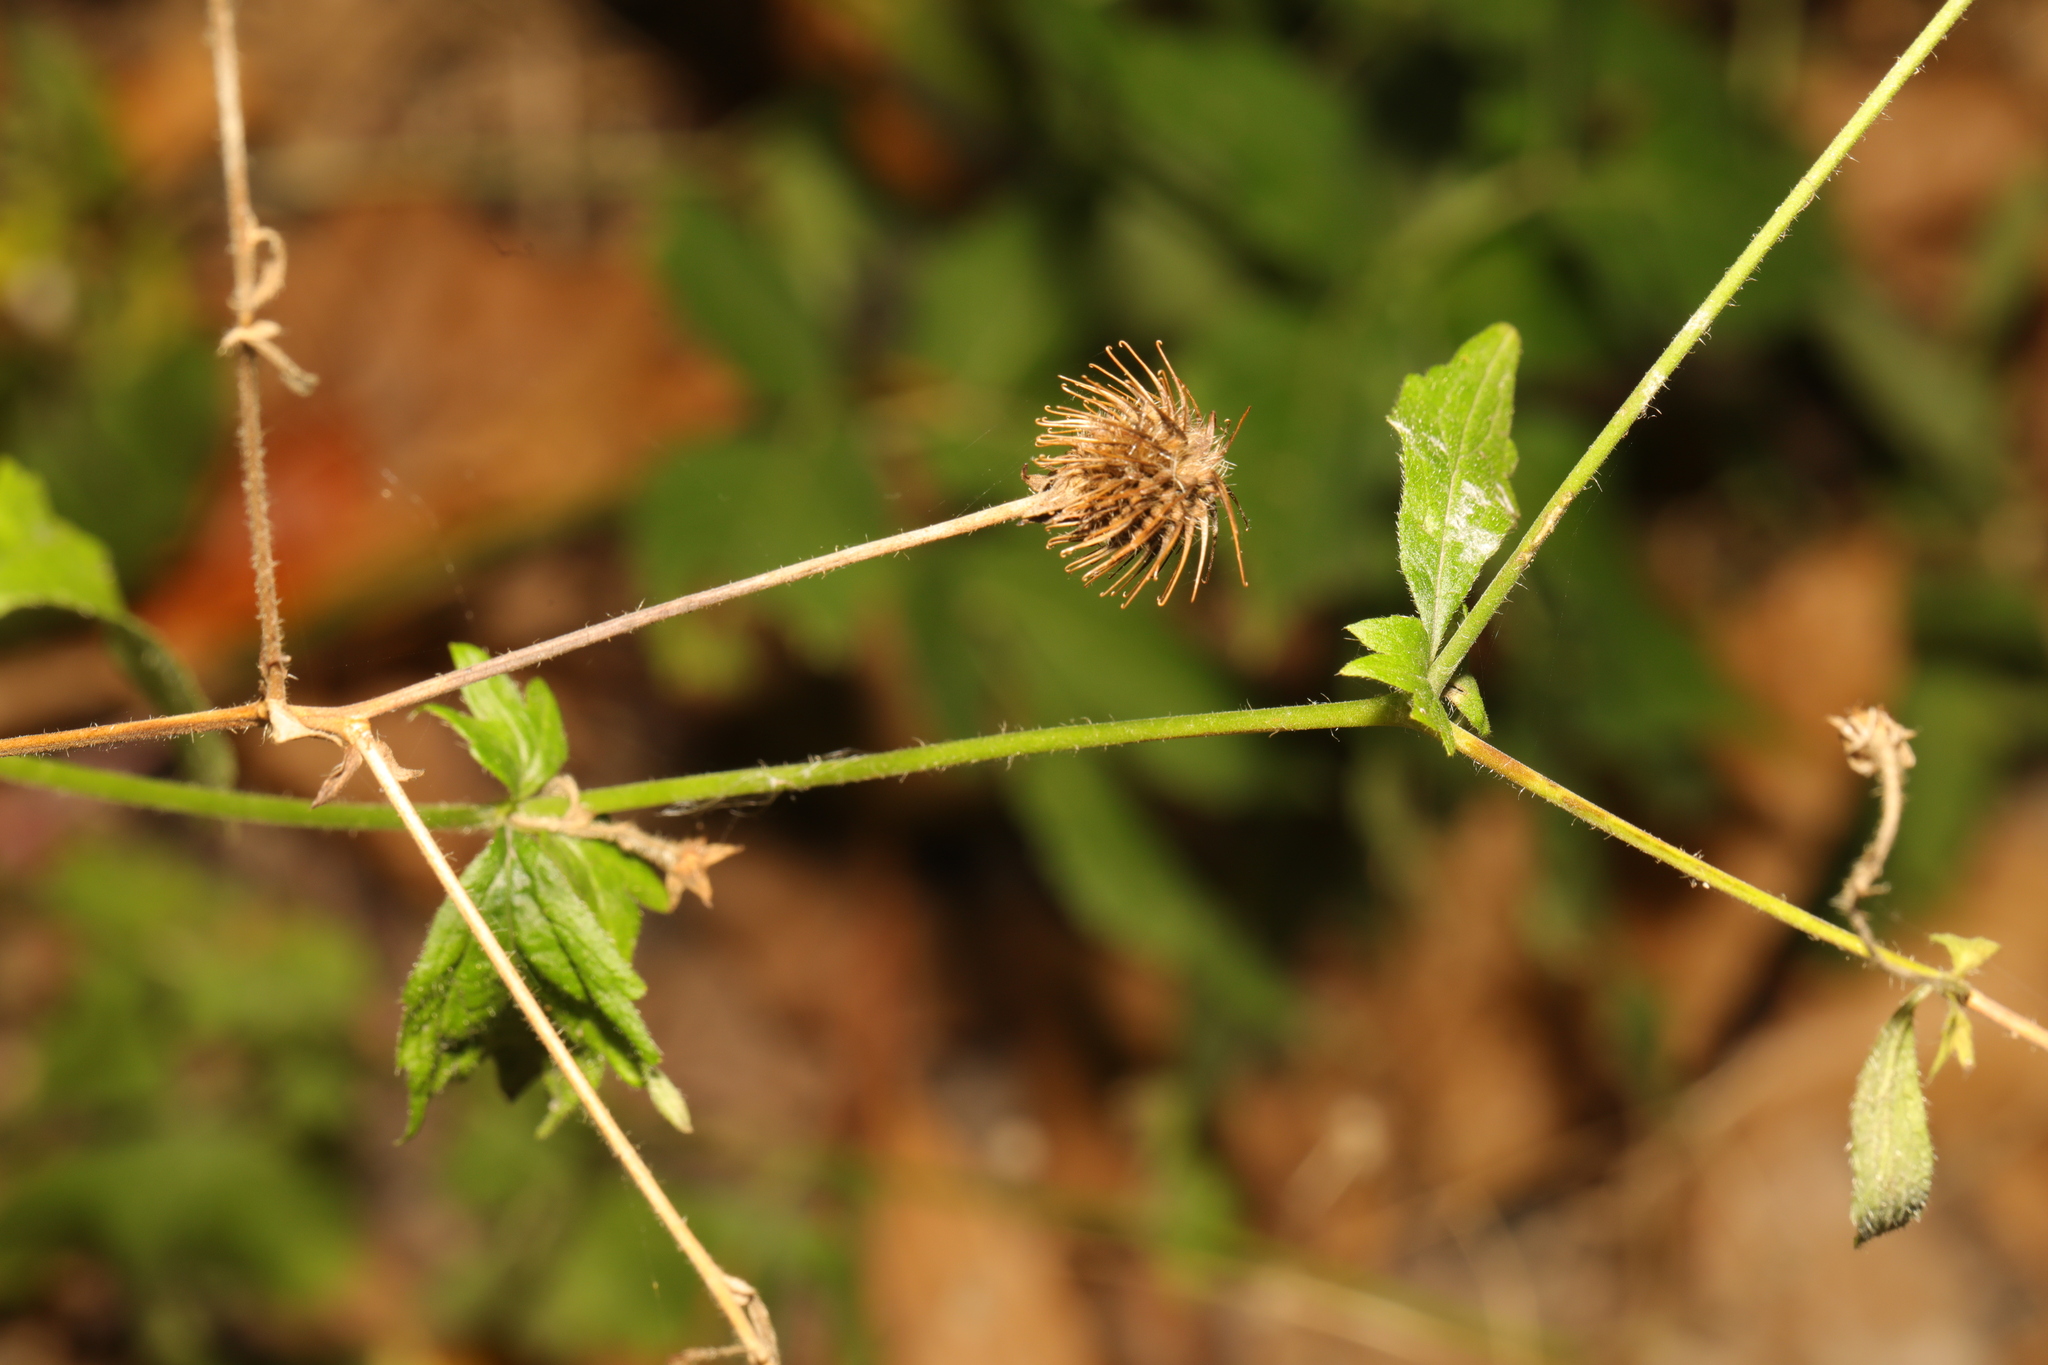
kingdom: Plantae
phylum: Tracheophyta
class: Magnoliopsida
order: Rosales
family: Rosaceae
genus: Geum
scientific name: Geum urbanum
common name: Wood avens
